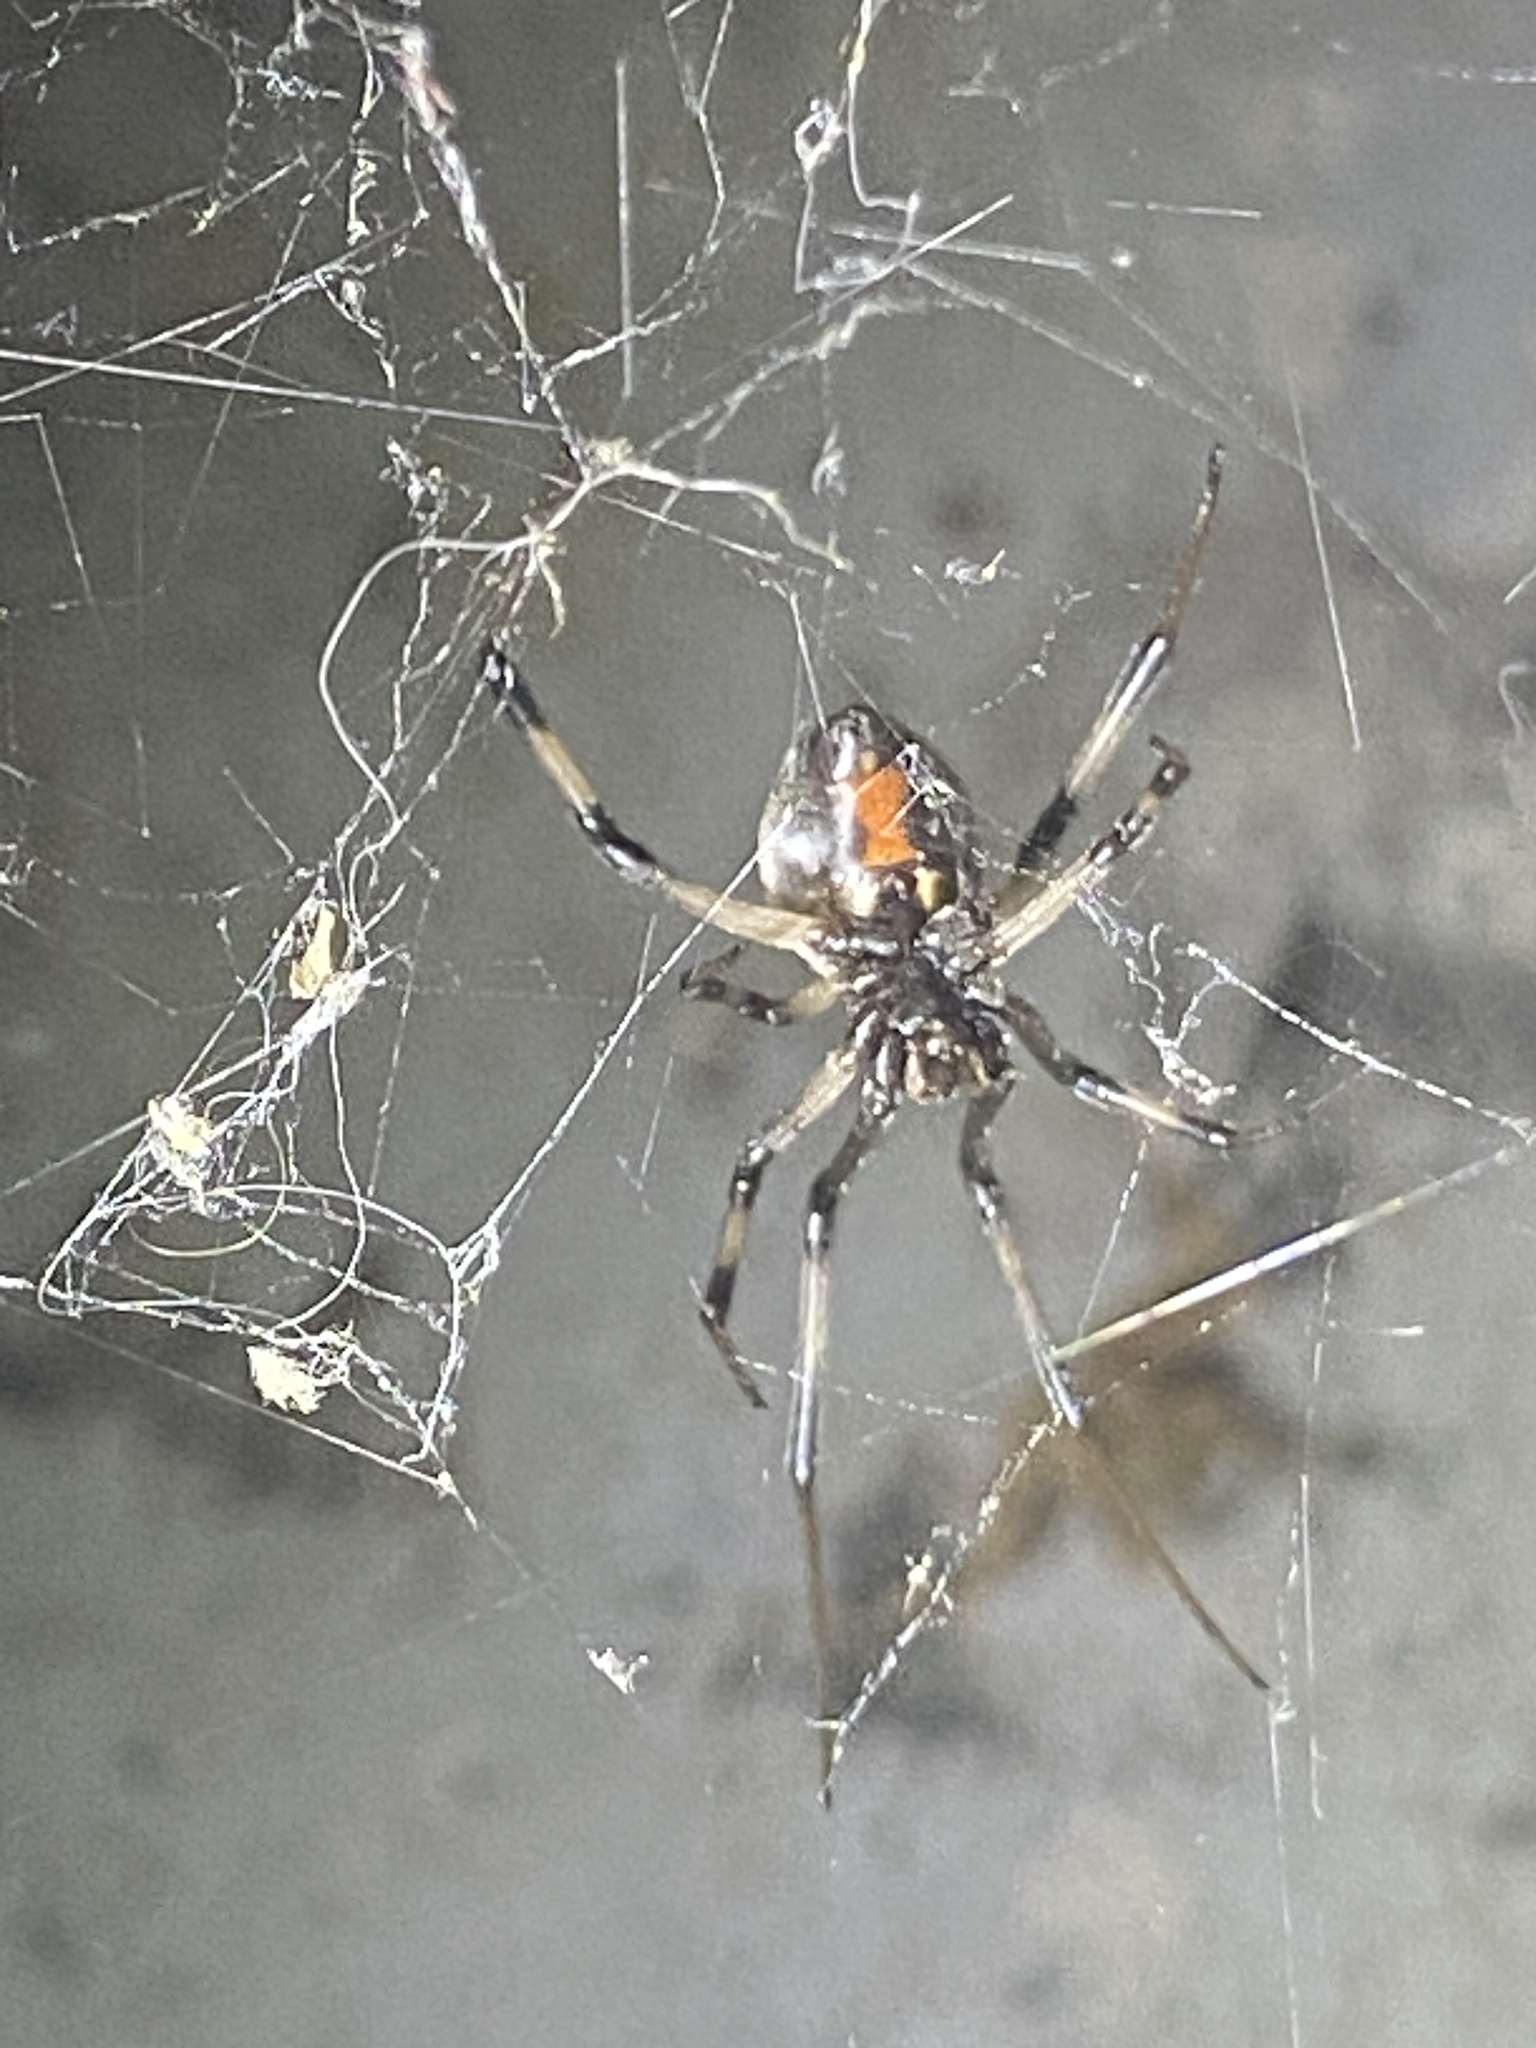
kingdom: Animalia
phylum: Arthropoda
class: Arachnida
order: Araneae
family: Theridiidae
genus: Latrodectus
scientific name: Latrodectus geometricus
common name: Brown widow spider
